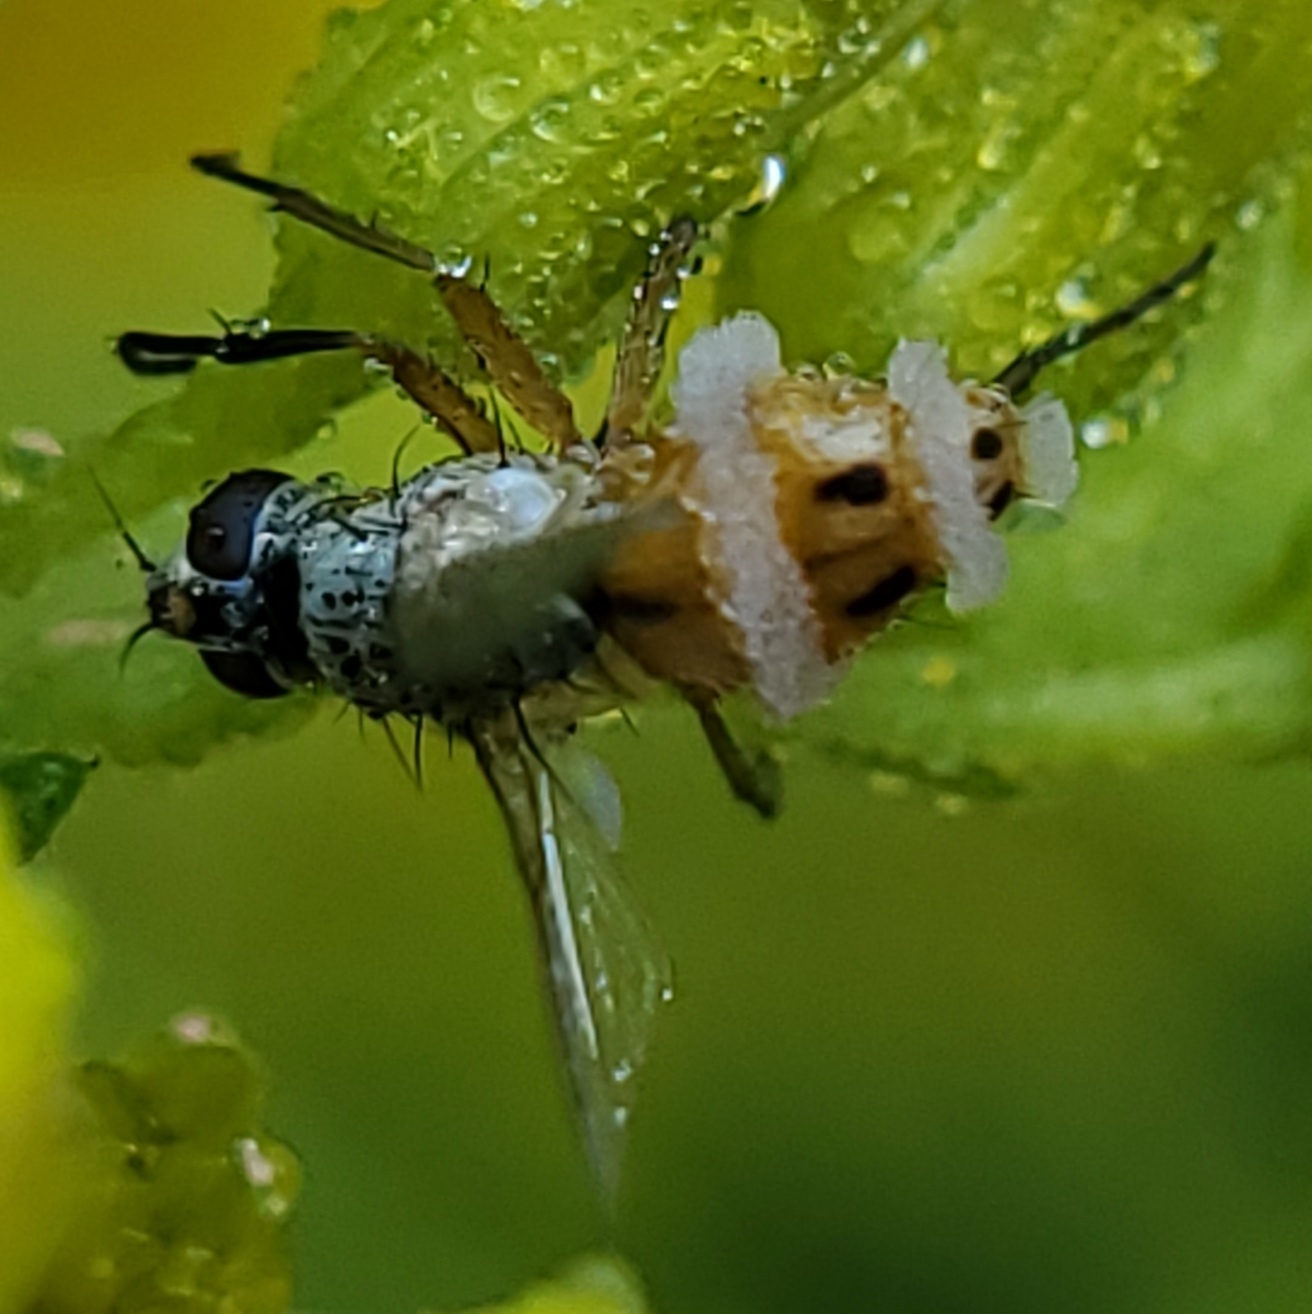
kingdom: Fungi
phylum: Entomophthoromycota
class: Entomophthoromycetes
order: Entomophthorales
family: Entomophthoraceae
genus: Entomophthora
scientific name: Entomophthora
